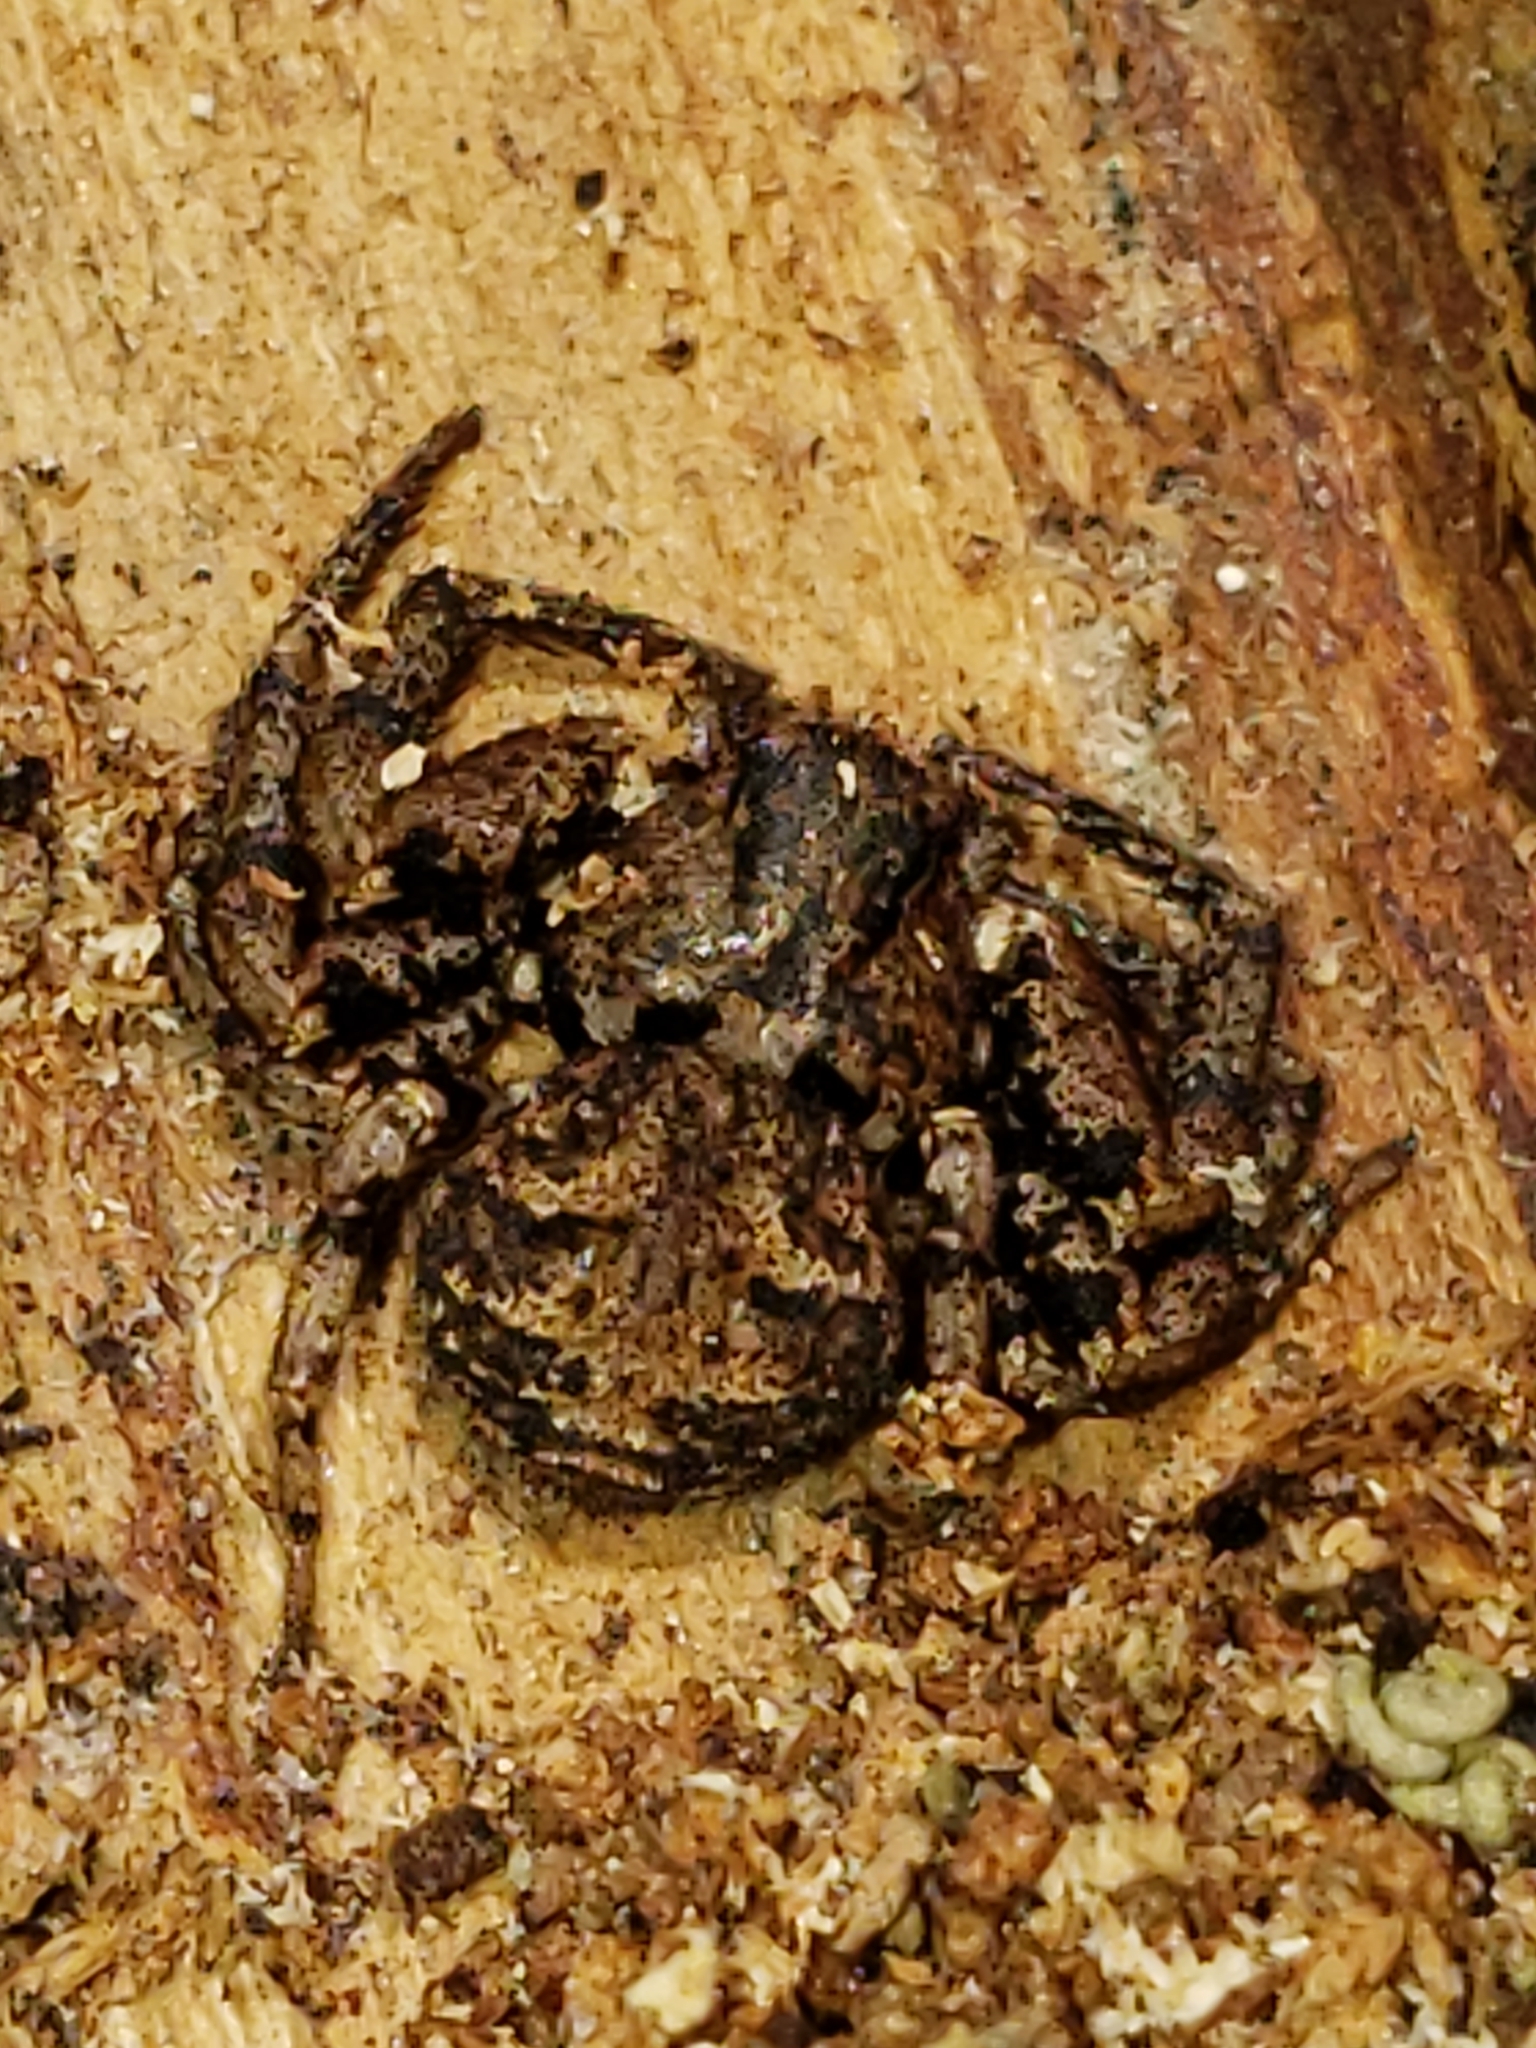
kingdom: Animalia
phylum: Arthropoda
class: Arachnida
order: Araneae
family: Thomisidae
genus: Bassaniana
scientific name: Bassaniana versicolor
